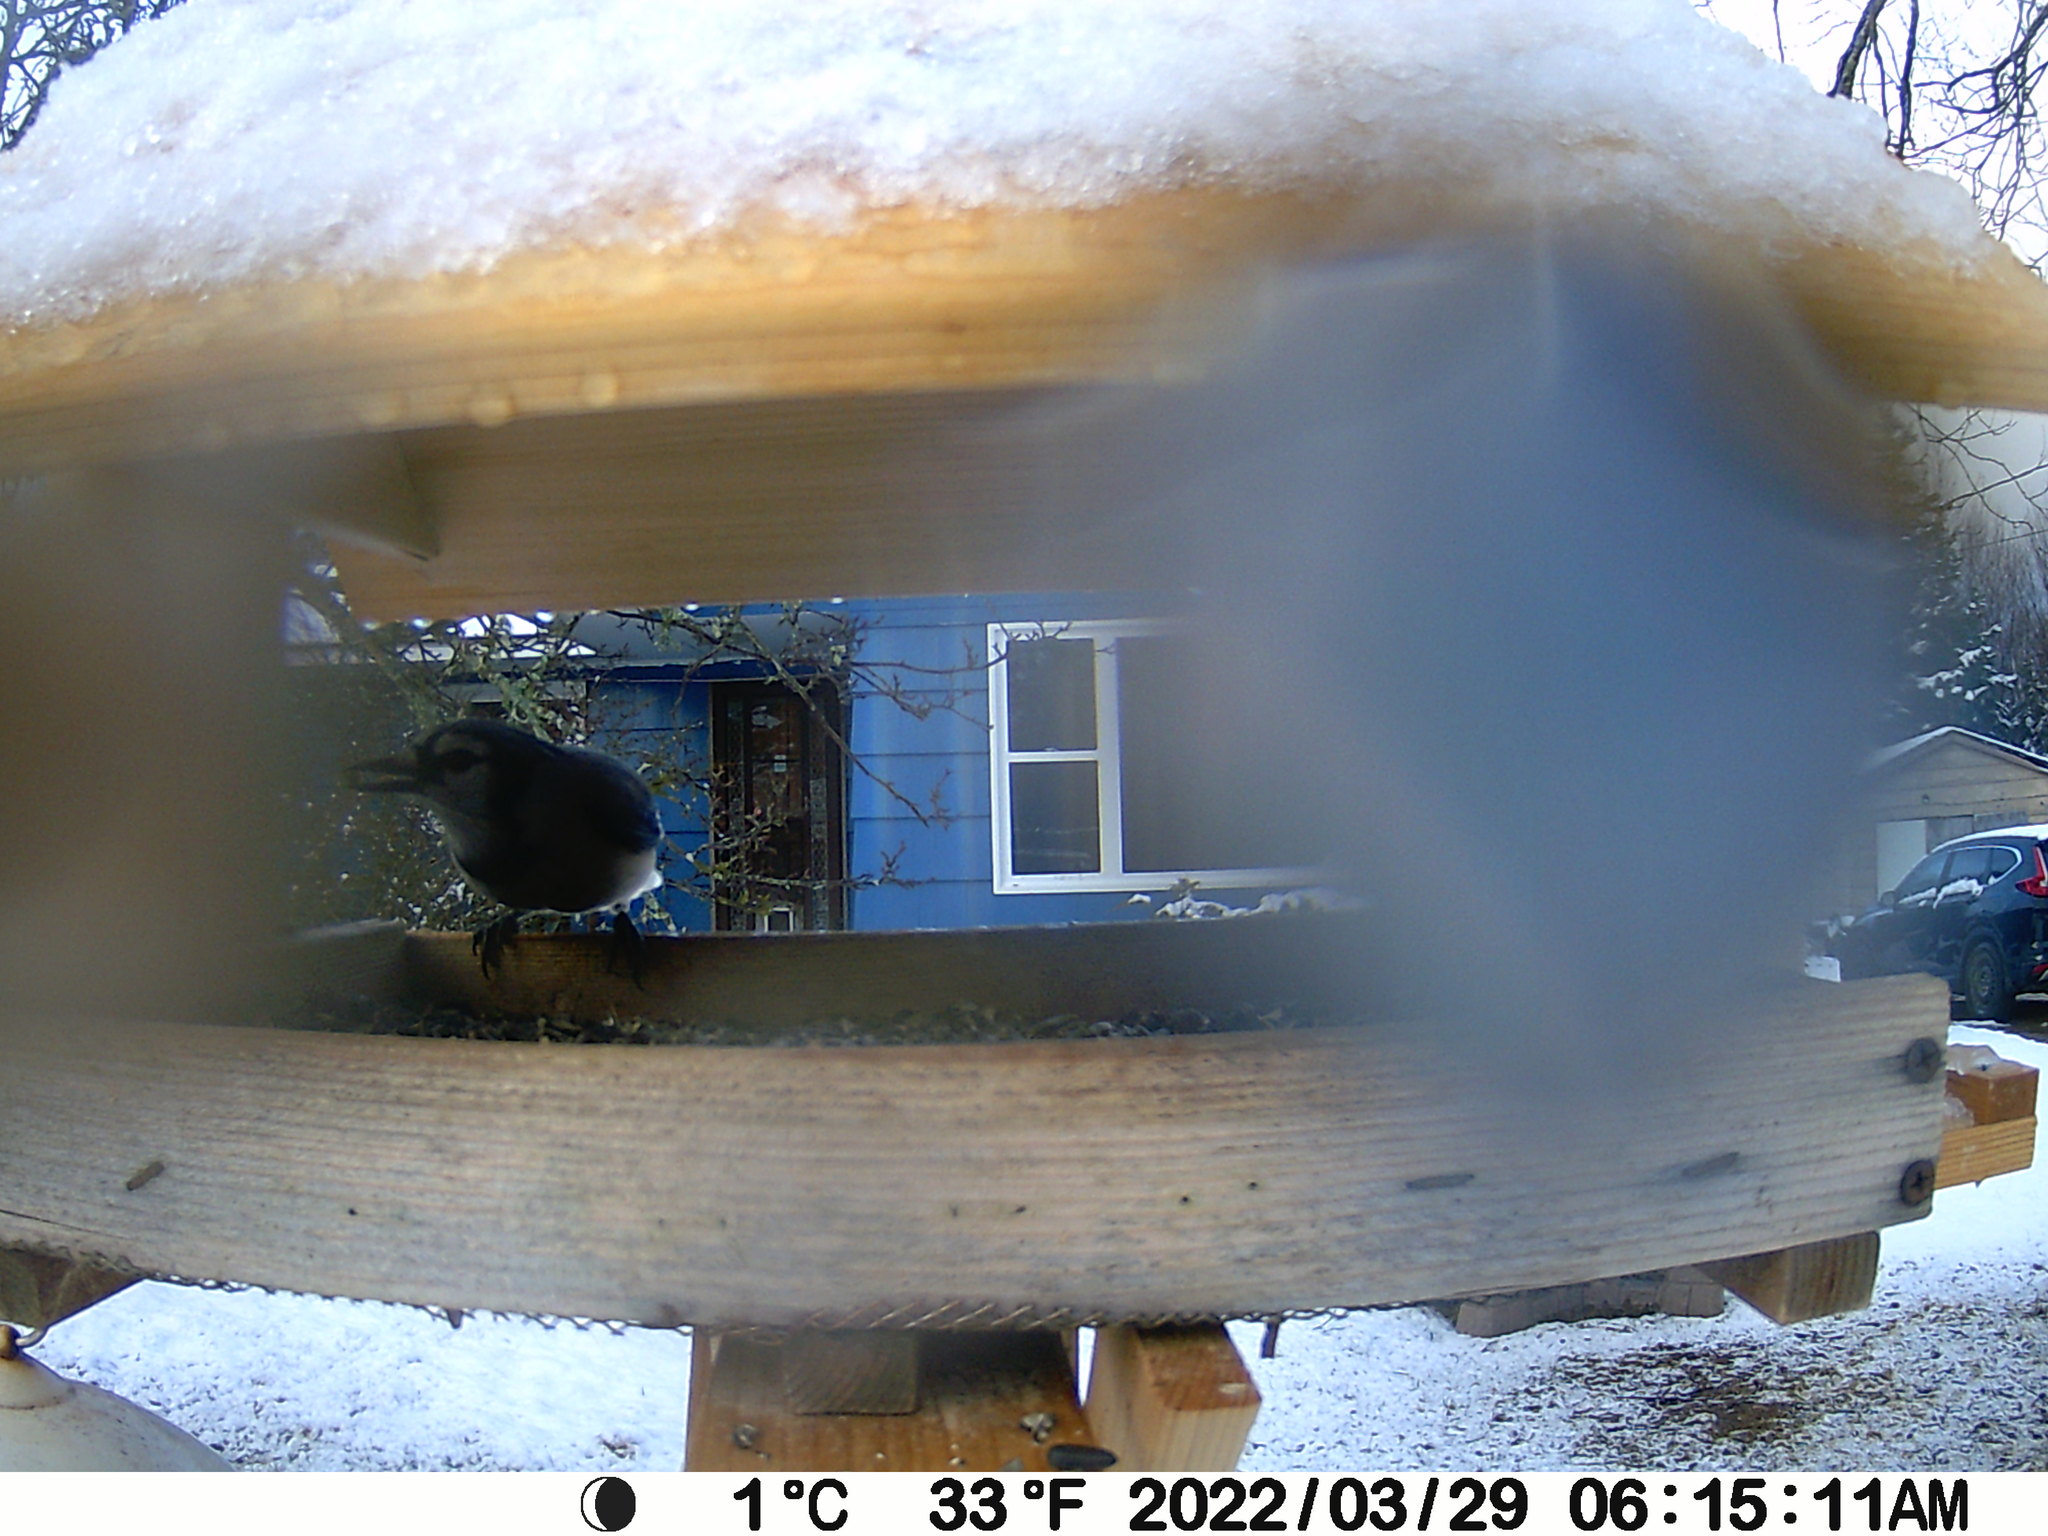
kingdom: Animalia
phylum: Chordata
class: Aves
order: Passeriformes
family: Corvidae
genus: Cyanocitta
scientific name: Cyanocitta cristata
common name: Blue jay
